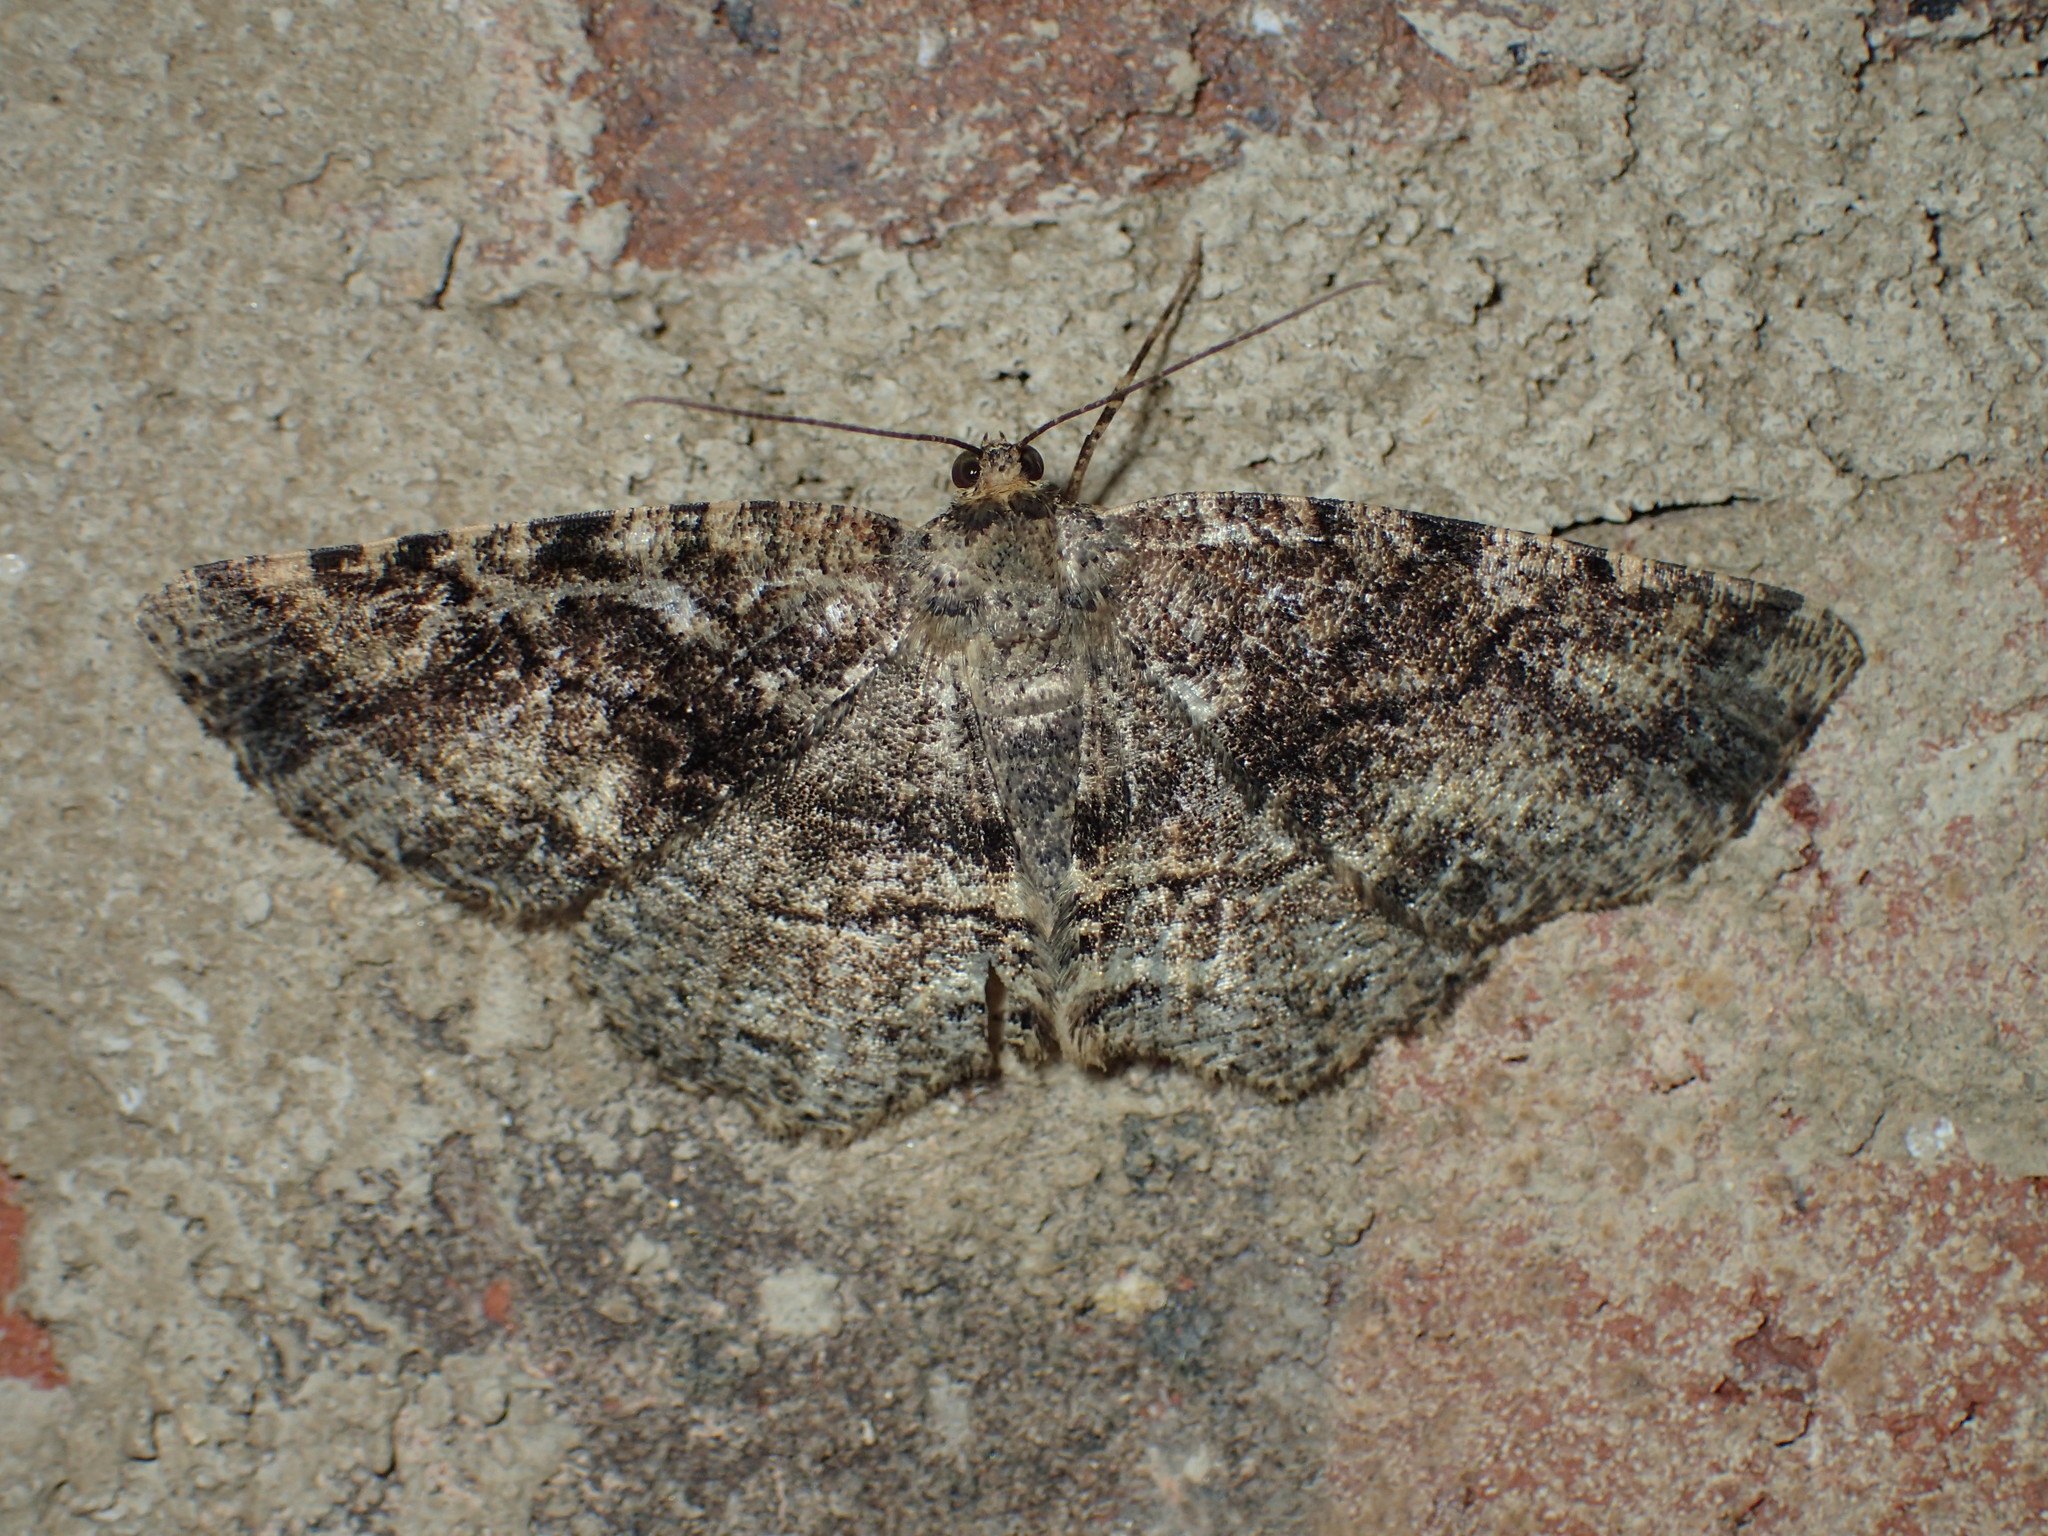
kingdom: Animalia
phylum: Arthropoda
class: Insecta
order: Lepidoptera
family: Geometridae
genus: Melanolophia
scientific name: Melanolophia canadaria
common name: Canadian melanolophia
